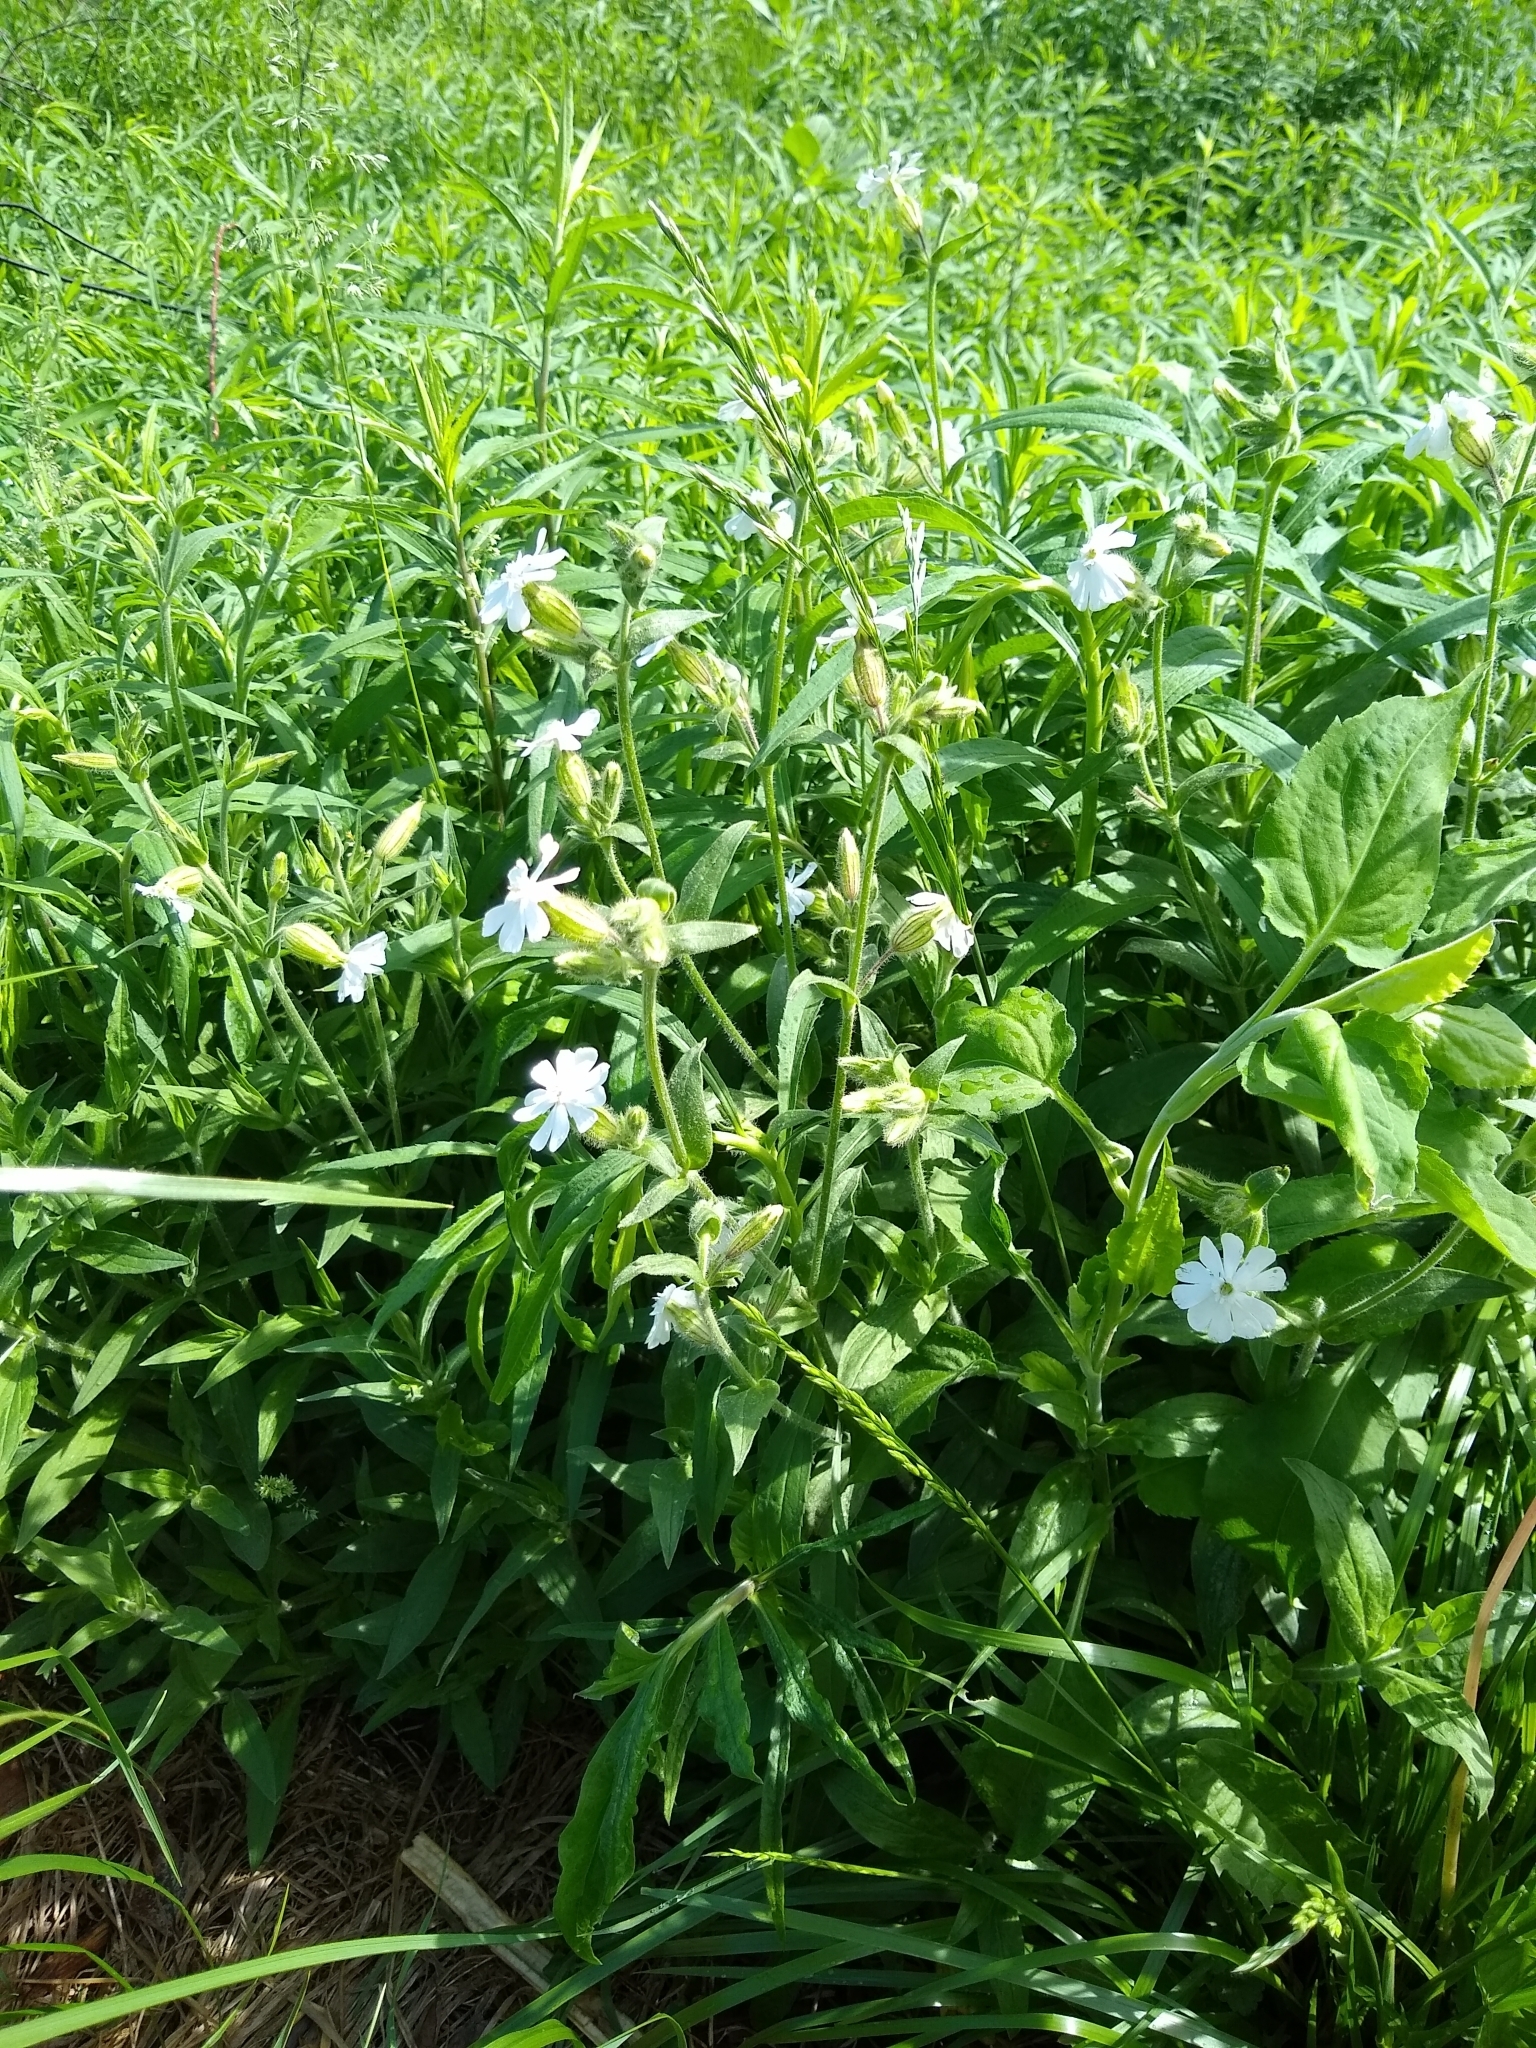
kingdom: Plantae
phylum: Tracheophyta
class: Magnoliopsida
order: Caryophyllales
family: Caryophyllaceae
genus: Silene
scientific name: Silene latifolia
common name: White campion
